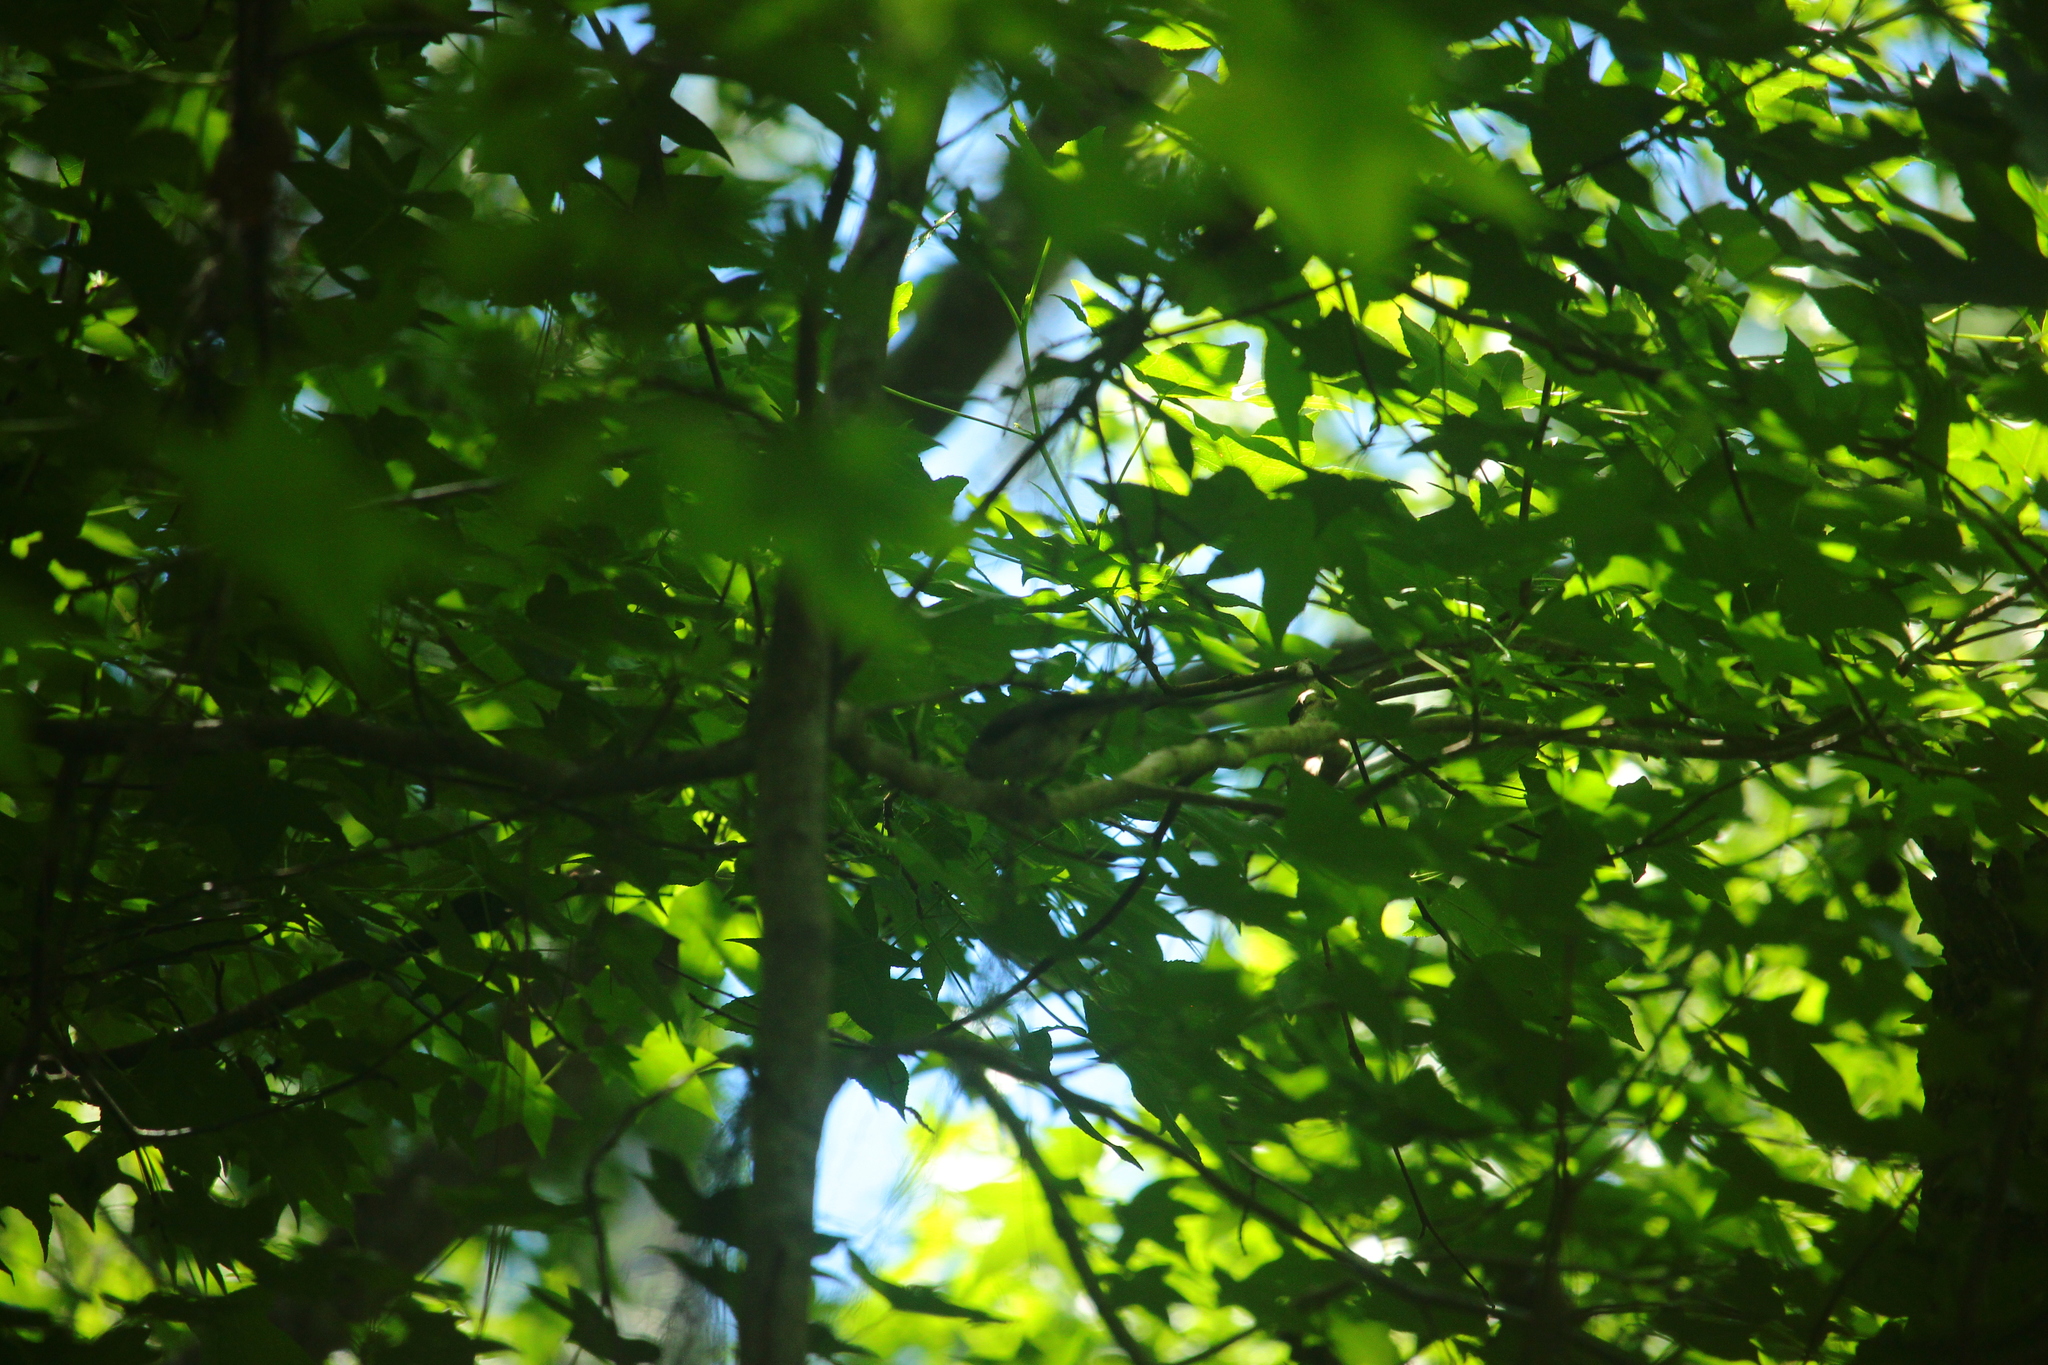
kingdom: Animalia
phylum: Chordata
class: Aves
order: Passeriformes
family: Paridae
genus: Baeolophus
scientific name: Baeolophus bicolor
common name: Tufted titmouse
